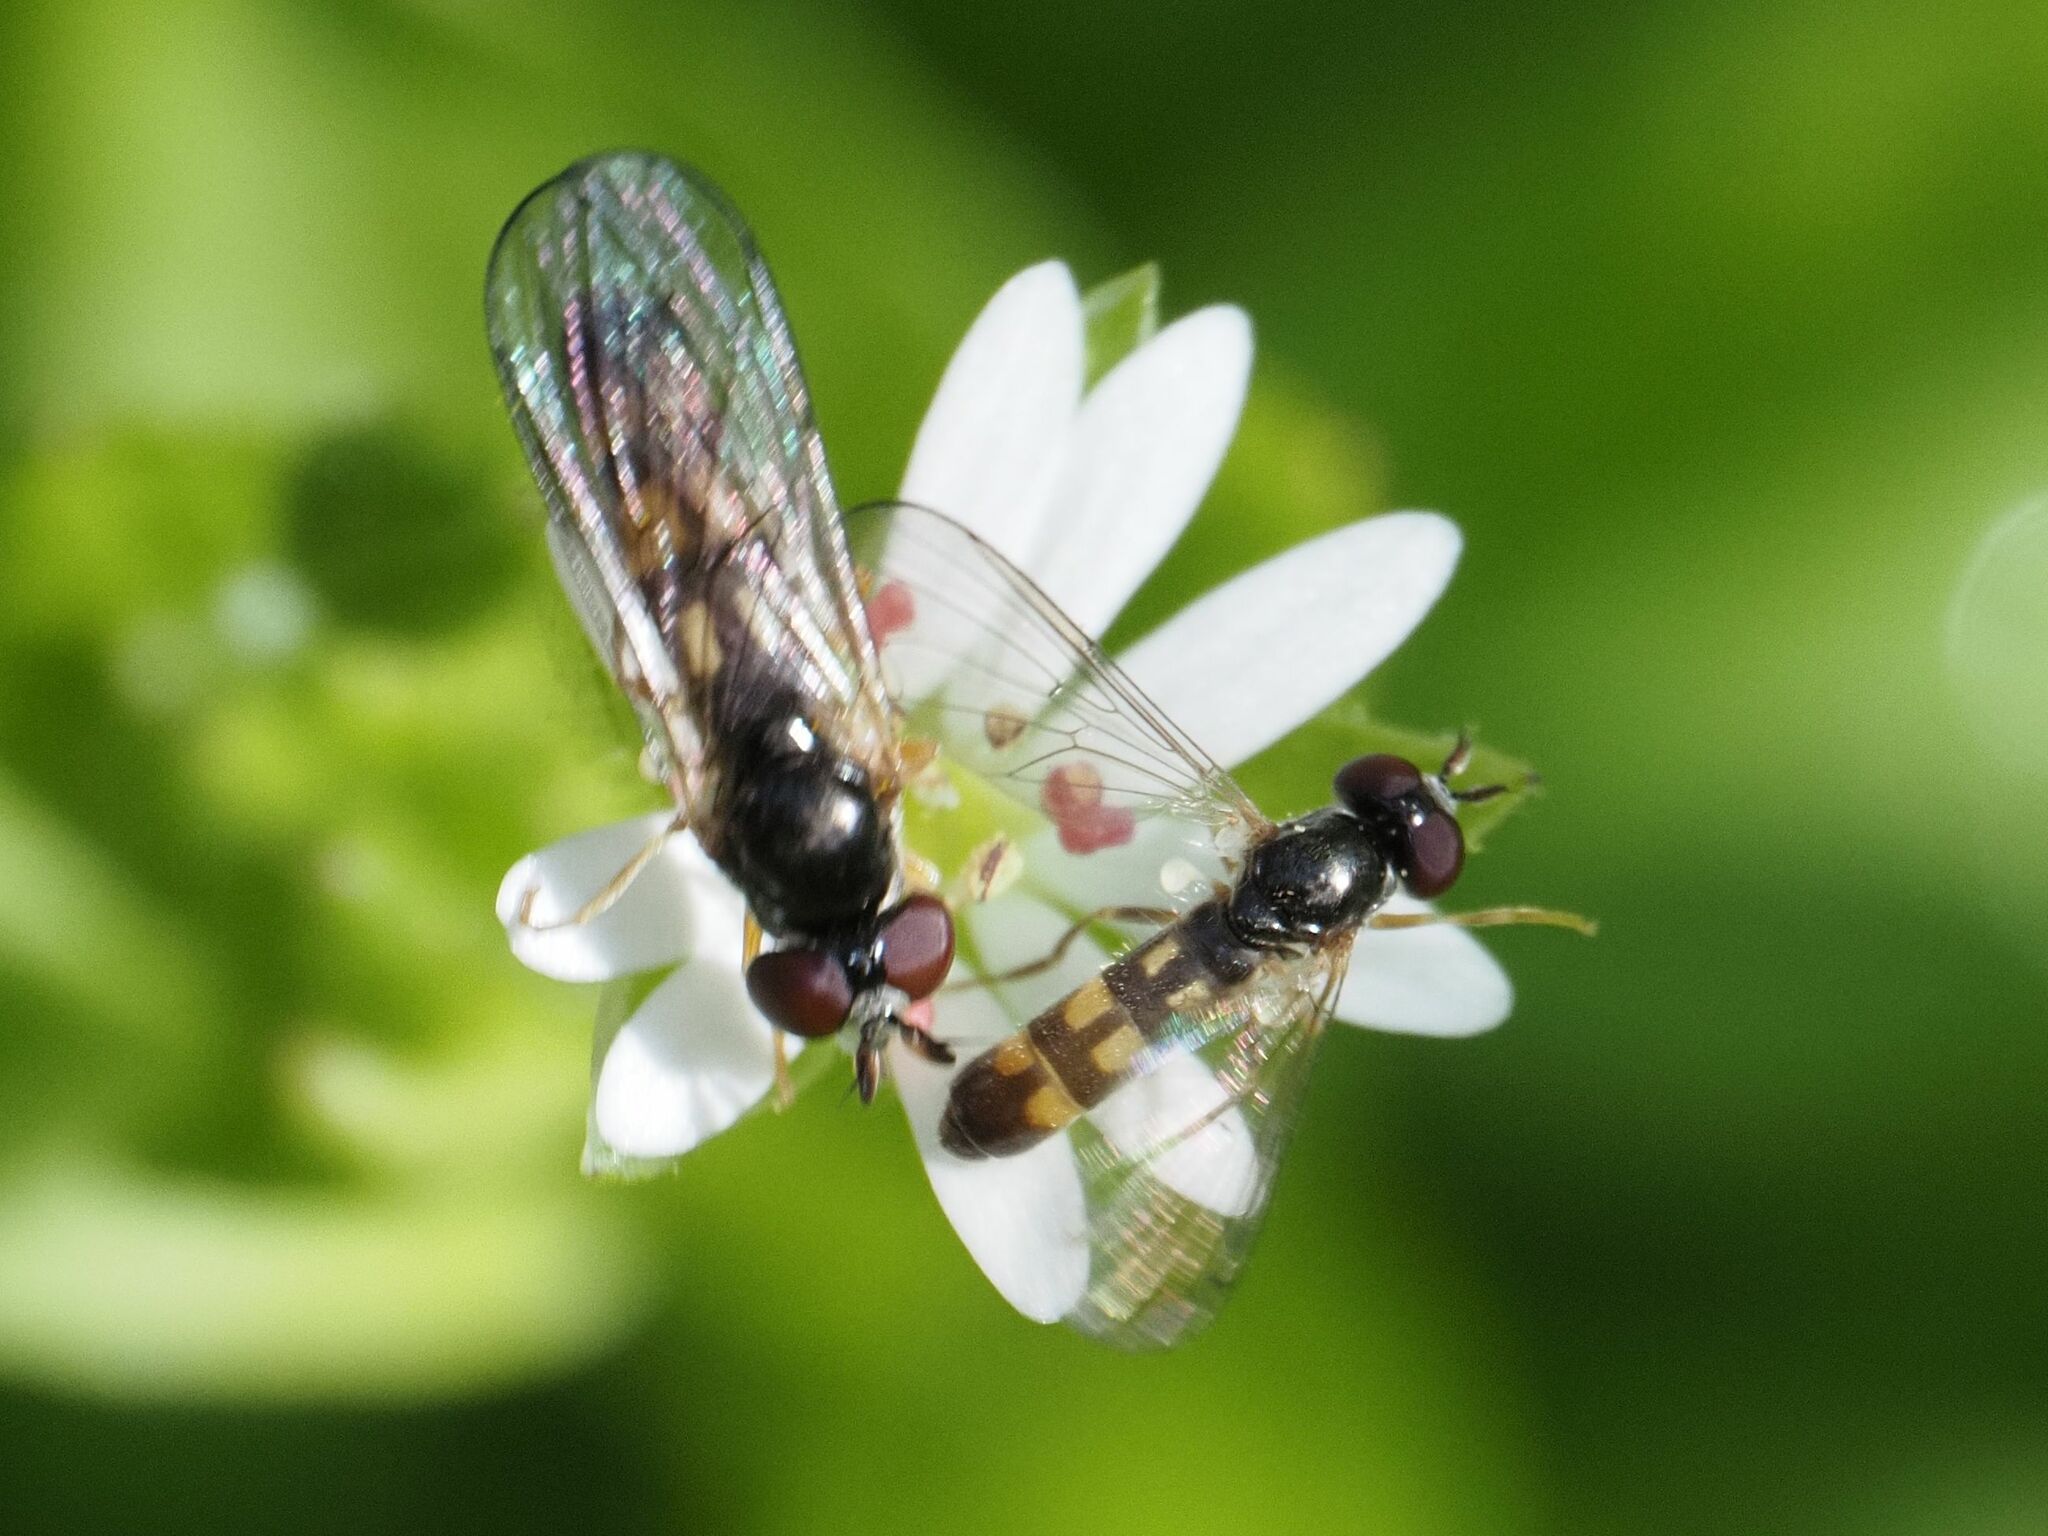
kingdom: Animalia
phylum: Arthropoda
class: Insecta
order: Diptera
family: Syrphidae
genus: Chamaesyrphus
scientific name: Chamaesyrphus scaevoides
